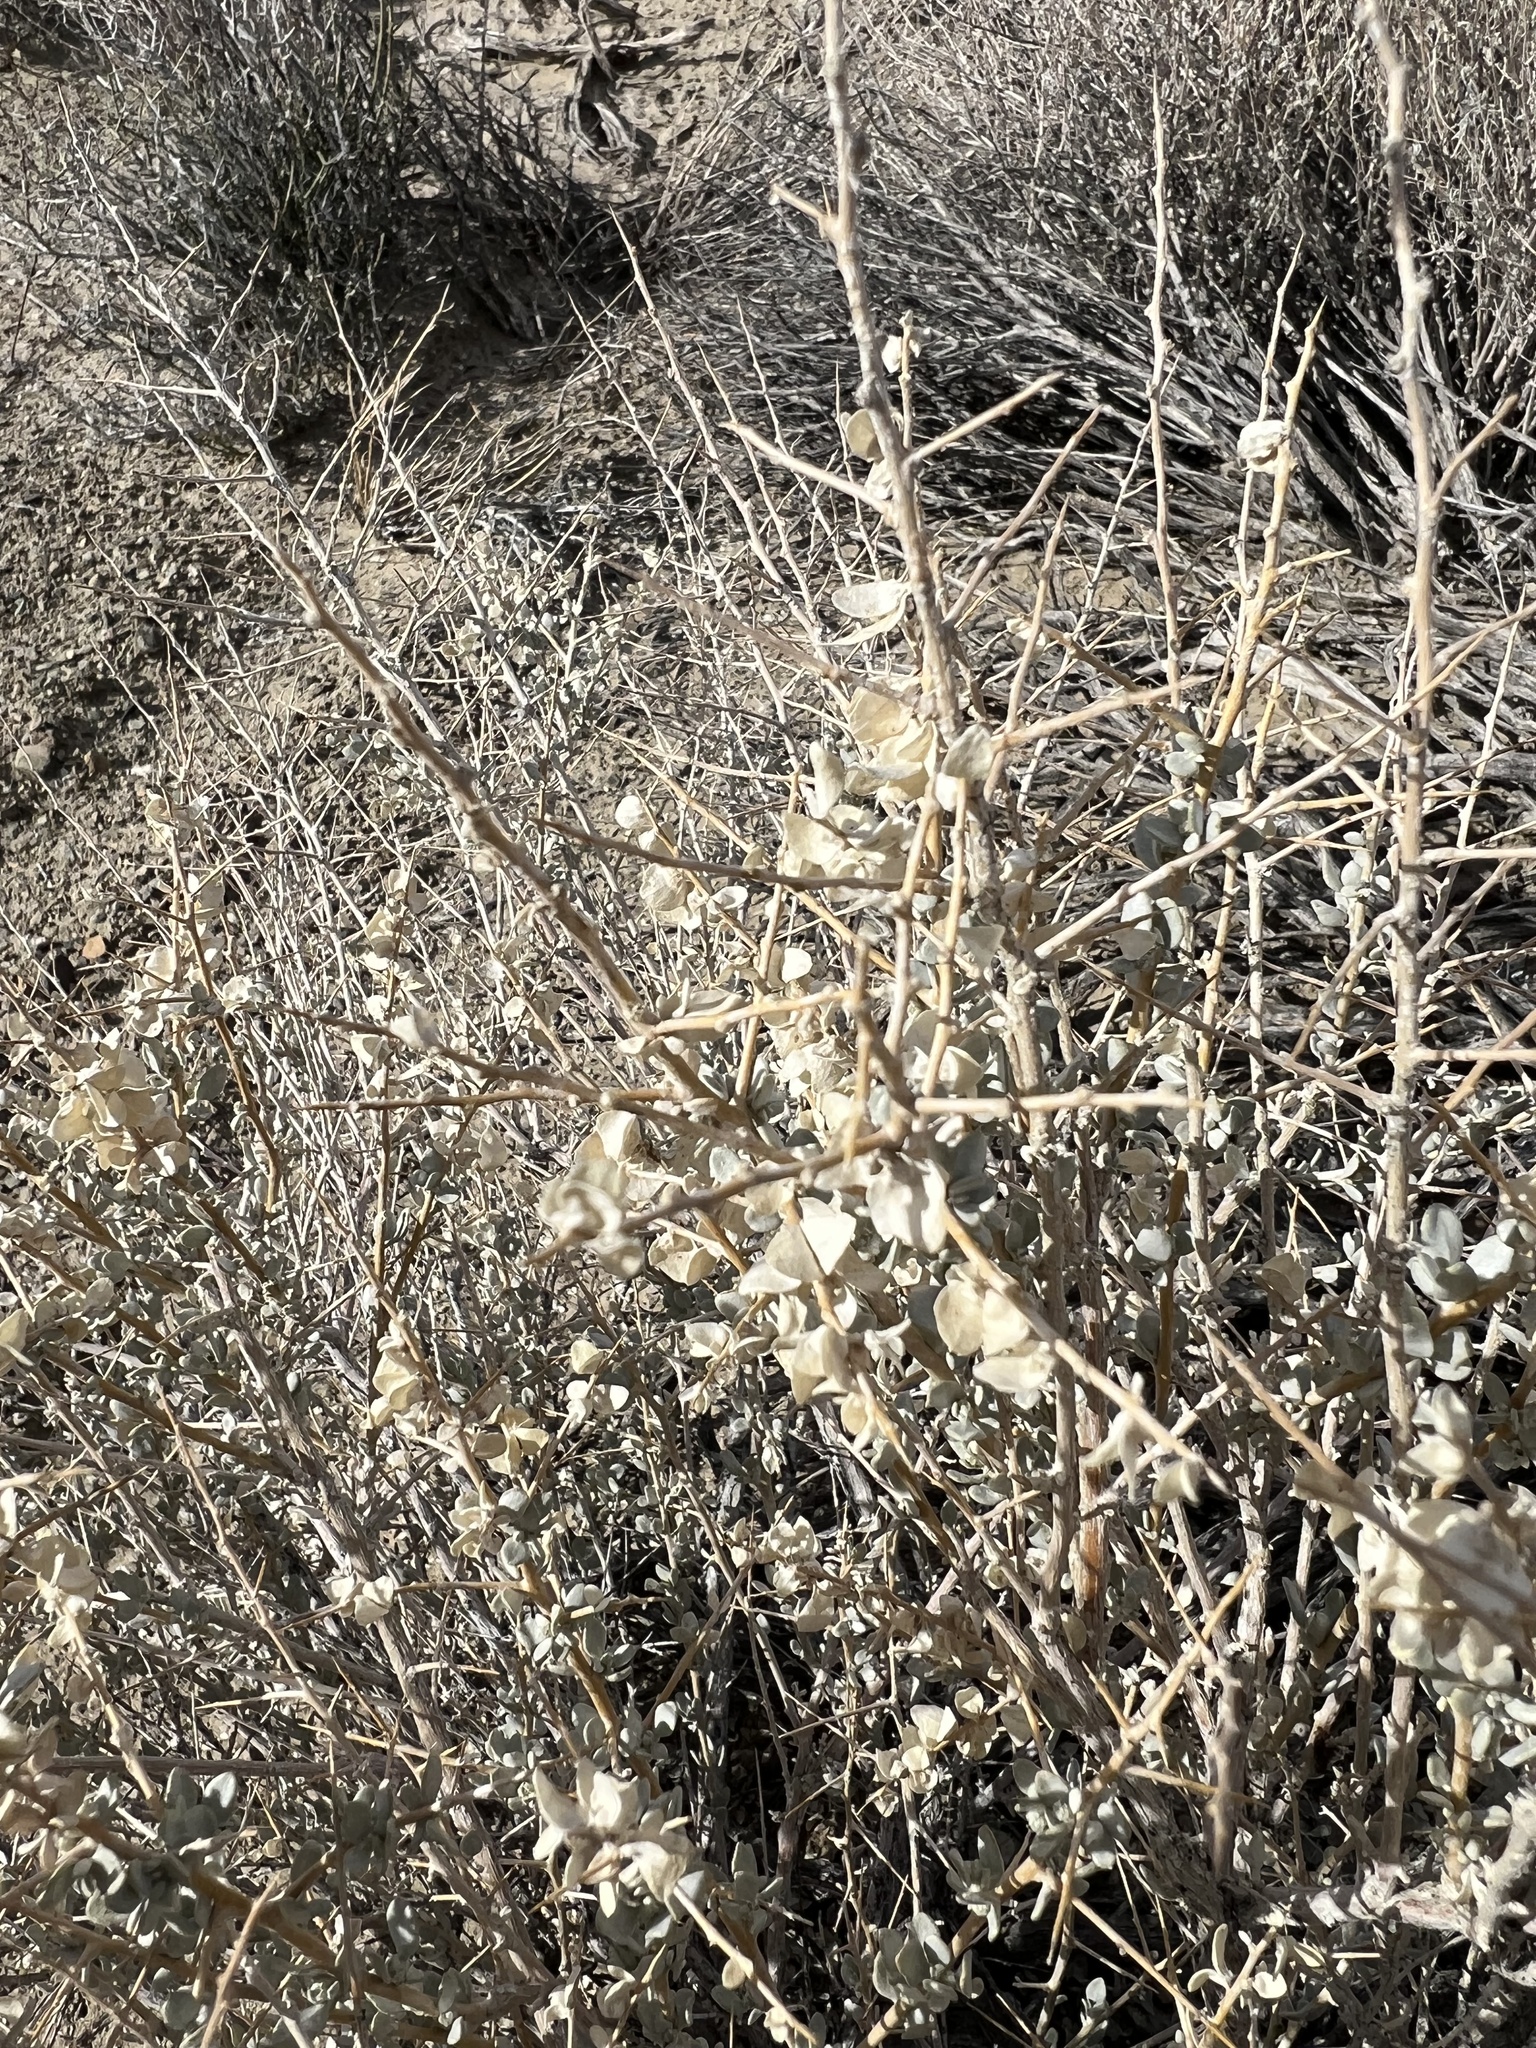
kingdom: Plantae
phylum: Tracheophyta
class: Magnoliopsida
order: Caryophyllales
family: Amaranthaceae
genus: Atriplex
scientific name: Atriplex confertifolia
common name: Shadscale
